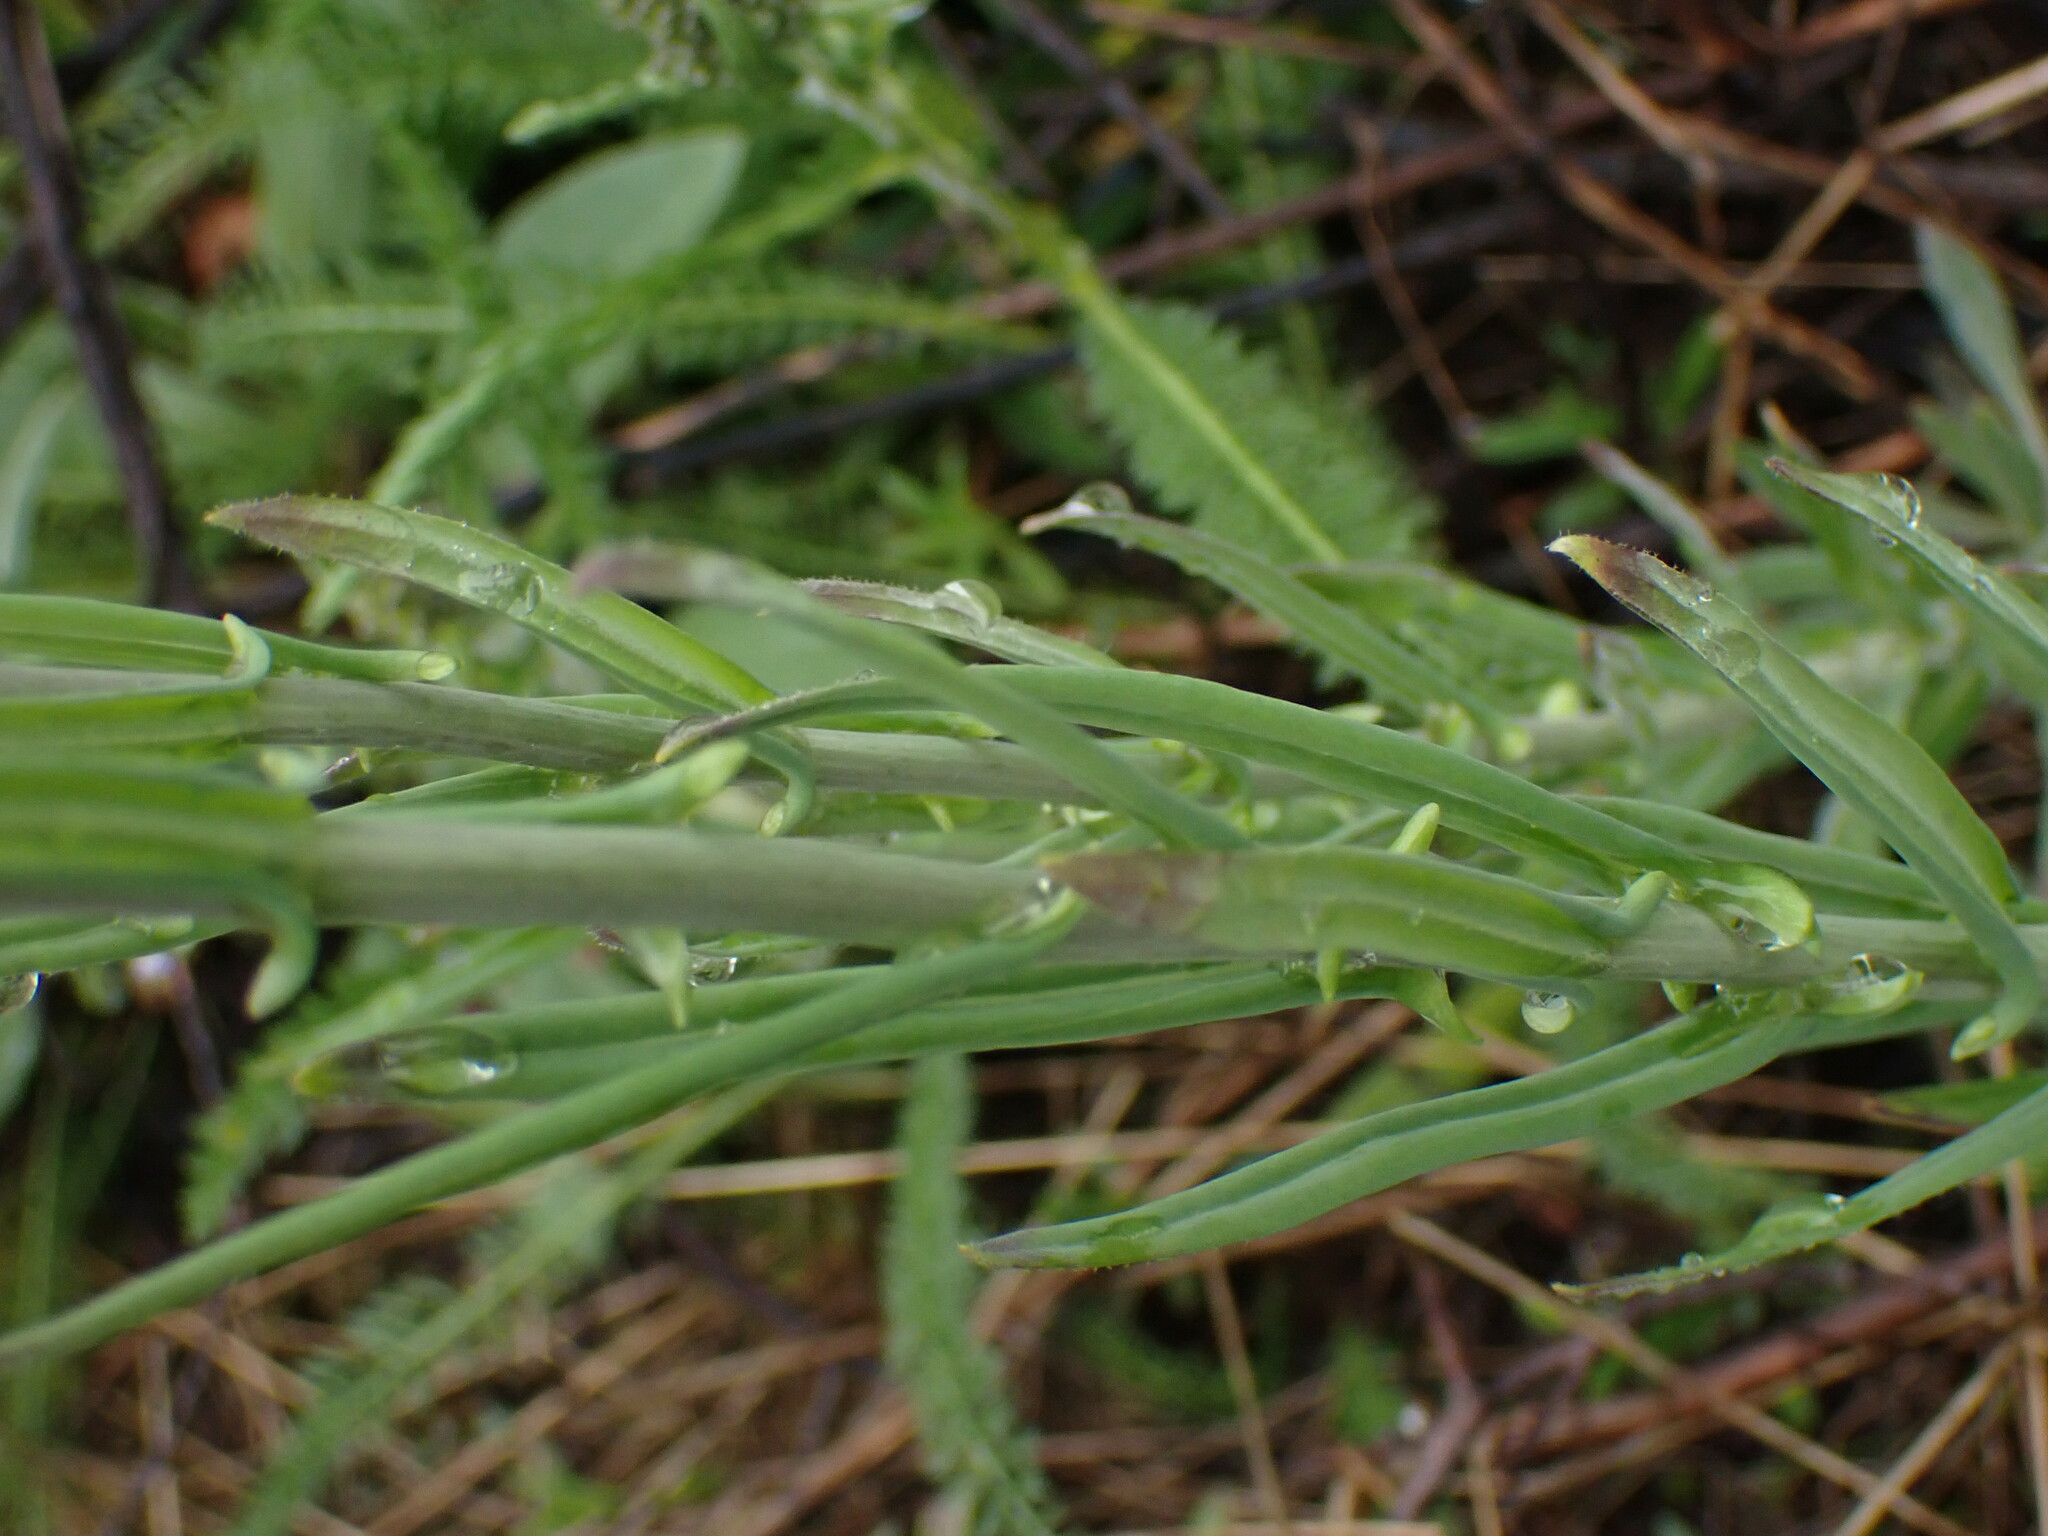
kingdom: Plantae
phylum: Tracheophyta
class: Magnoliopsida
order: Brassicales
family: Brassicaceae
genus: Boechera
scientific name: Boechera retrofracta
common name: Dangling suncress
